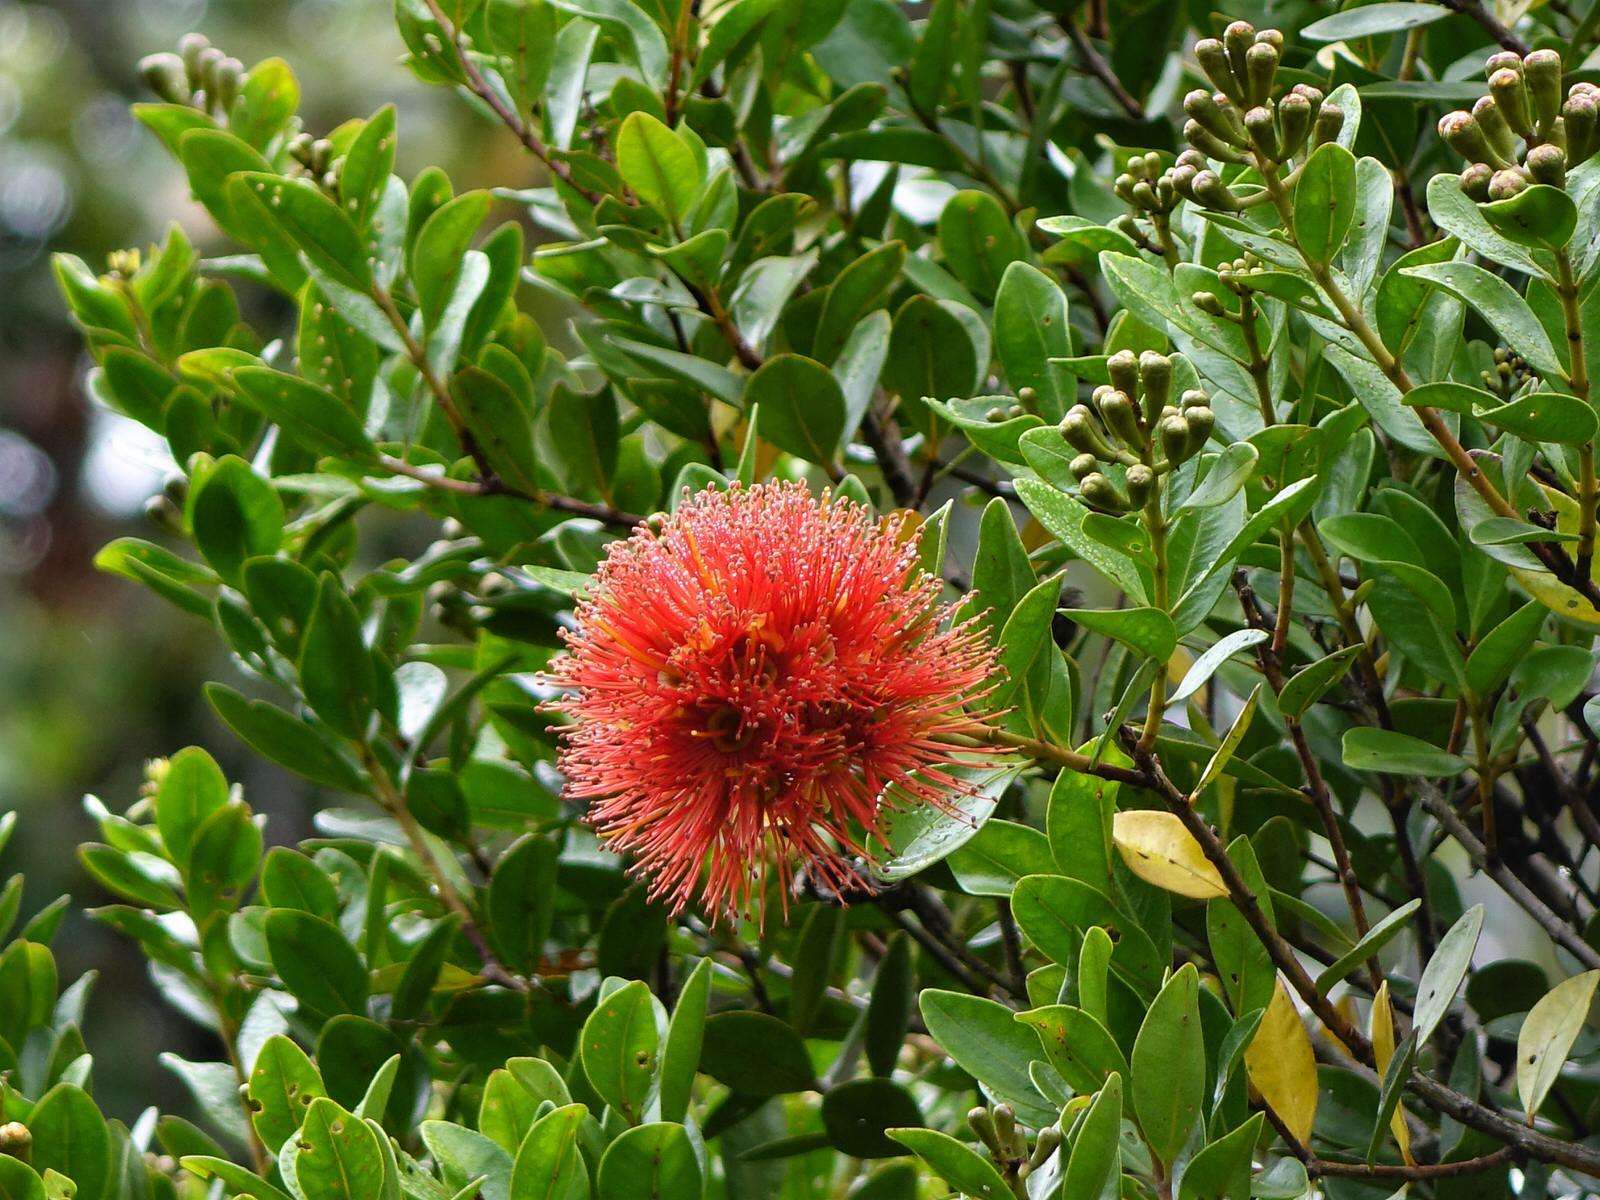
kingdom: Plantae
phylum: Tracheophyta
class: Magnoliopsida
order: Myrtales
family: Myrtaceae
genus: Metrosideros
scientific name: Metrosideros fulgens
